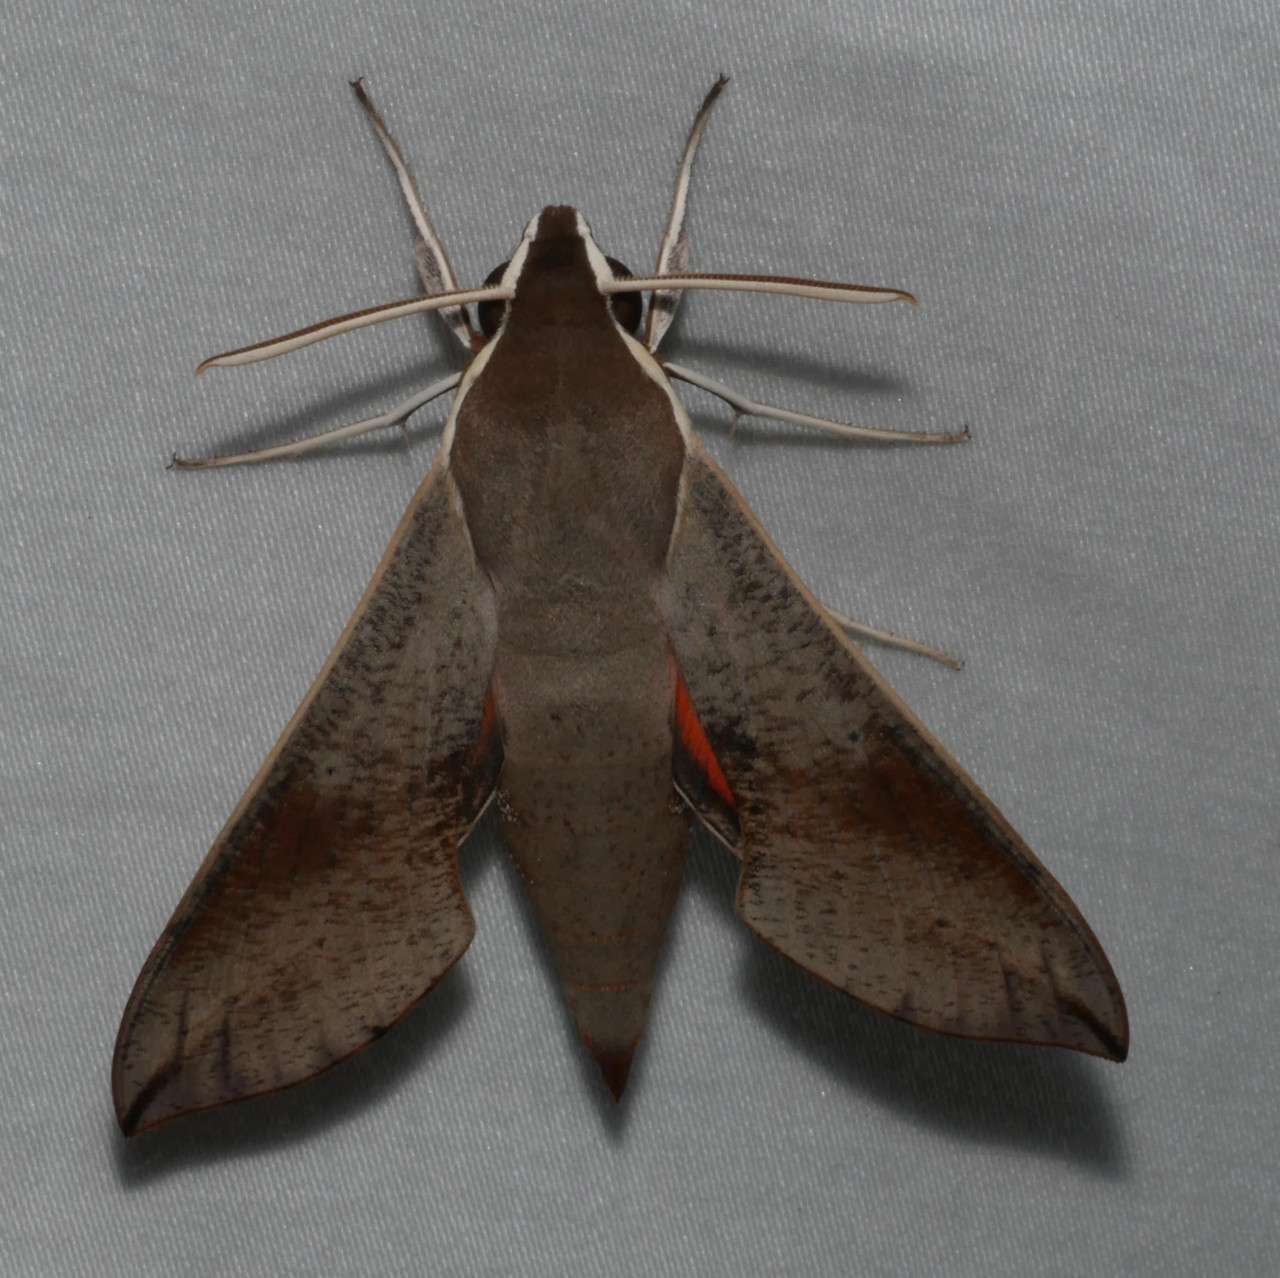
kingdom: Animalia
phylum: Arthropoda
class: Insecta
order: Lepidoptera
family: Sphingidae
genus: Hippotion
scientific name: Hippotion scrofa
